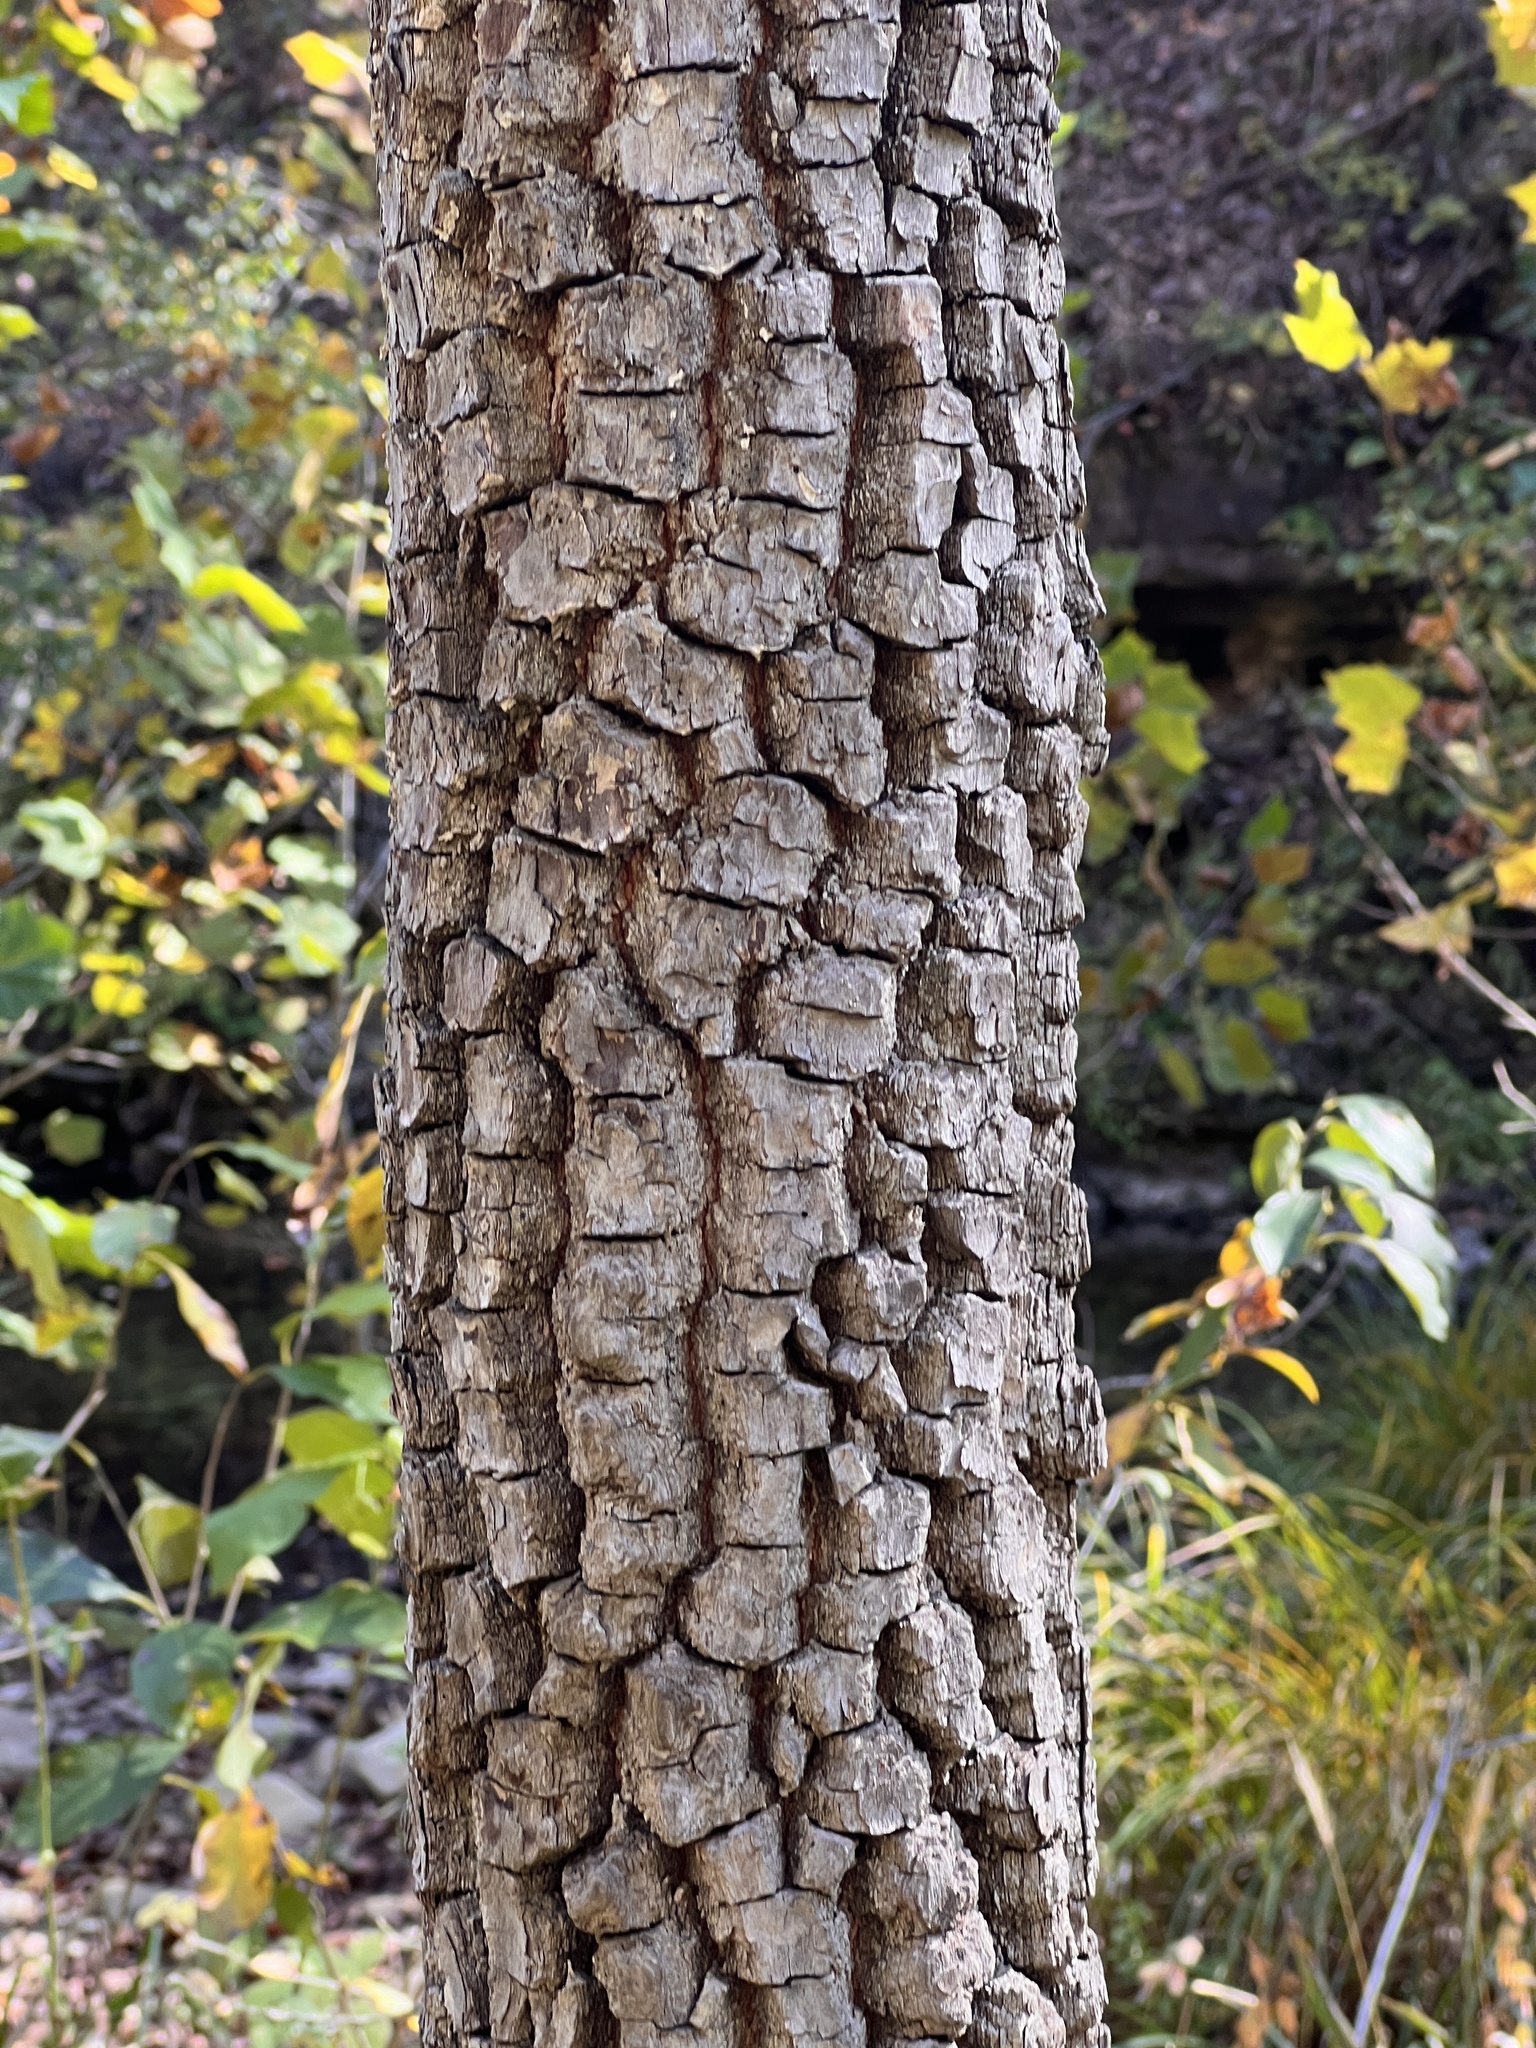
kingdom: Plantae
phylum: Tracheophyta
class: Magnoliopsida
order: Ericales
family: Ebenaceae
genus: Diospyros
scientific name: Diospyros virginiana
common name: Persimmon
